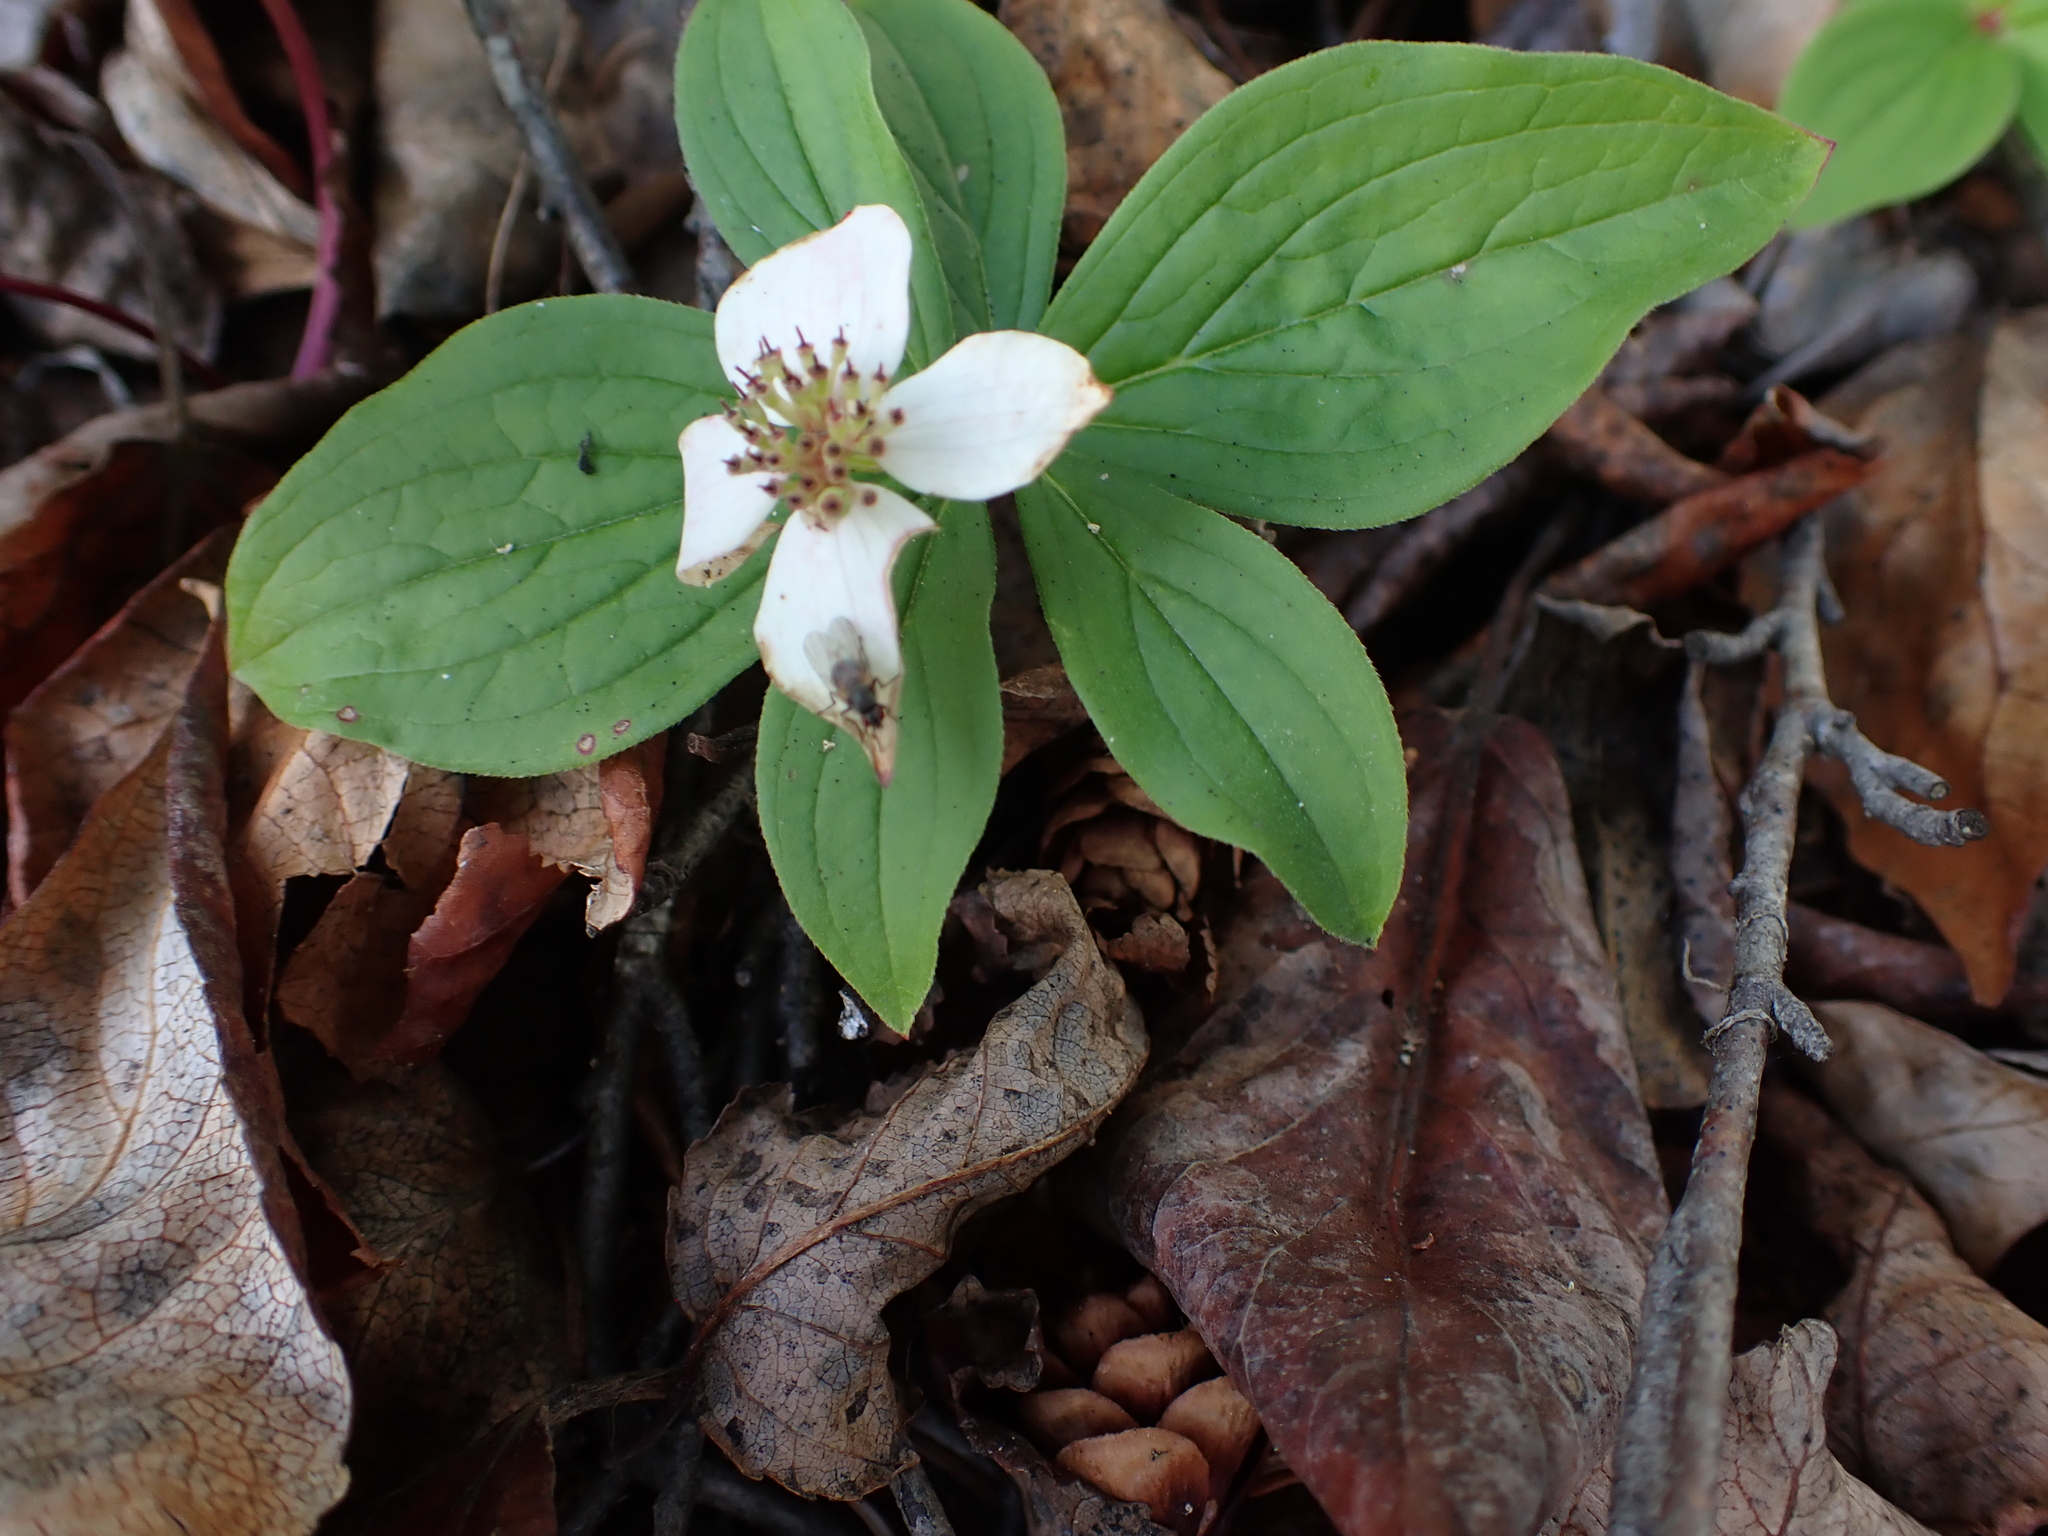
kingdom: Plantae
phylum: Tracheophyta
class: Magnoliopsida
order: Cornales
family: Cornaceae
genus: Cornus
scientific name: Cornus canadensis
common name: Creeping dogwood
